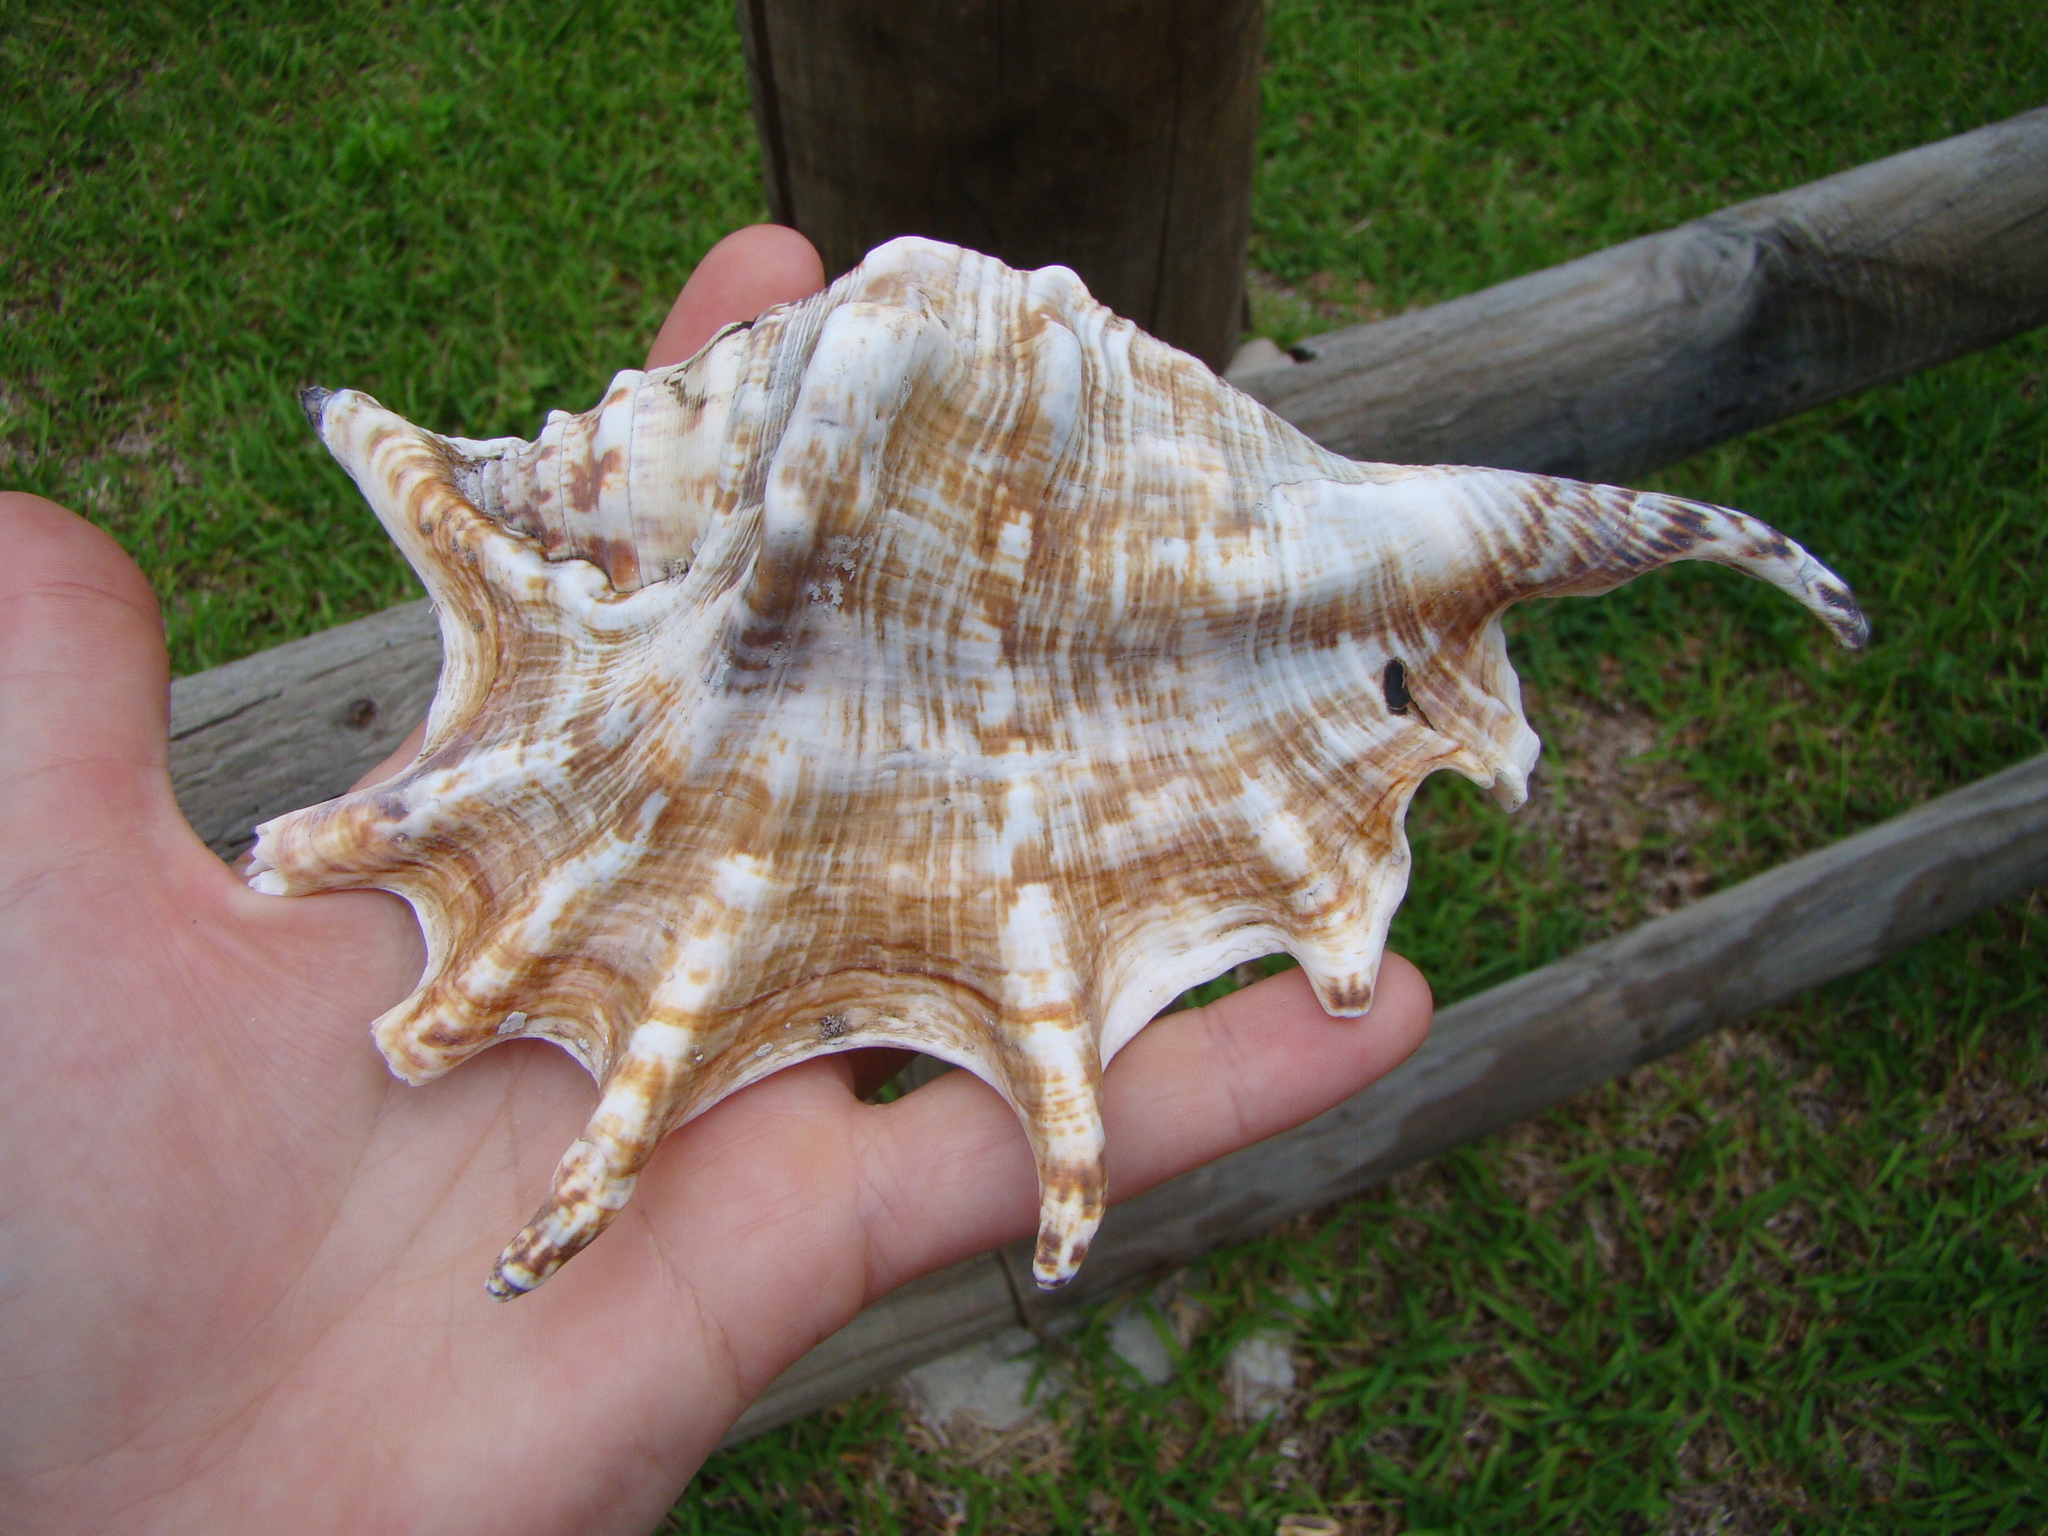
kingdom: Animalia
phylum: Mollusca
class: Gastropoda
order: Littorinimorpha
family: Strombidae
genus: Lambis
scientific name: Lambis lambis
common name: Common spider conch
